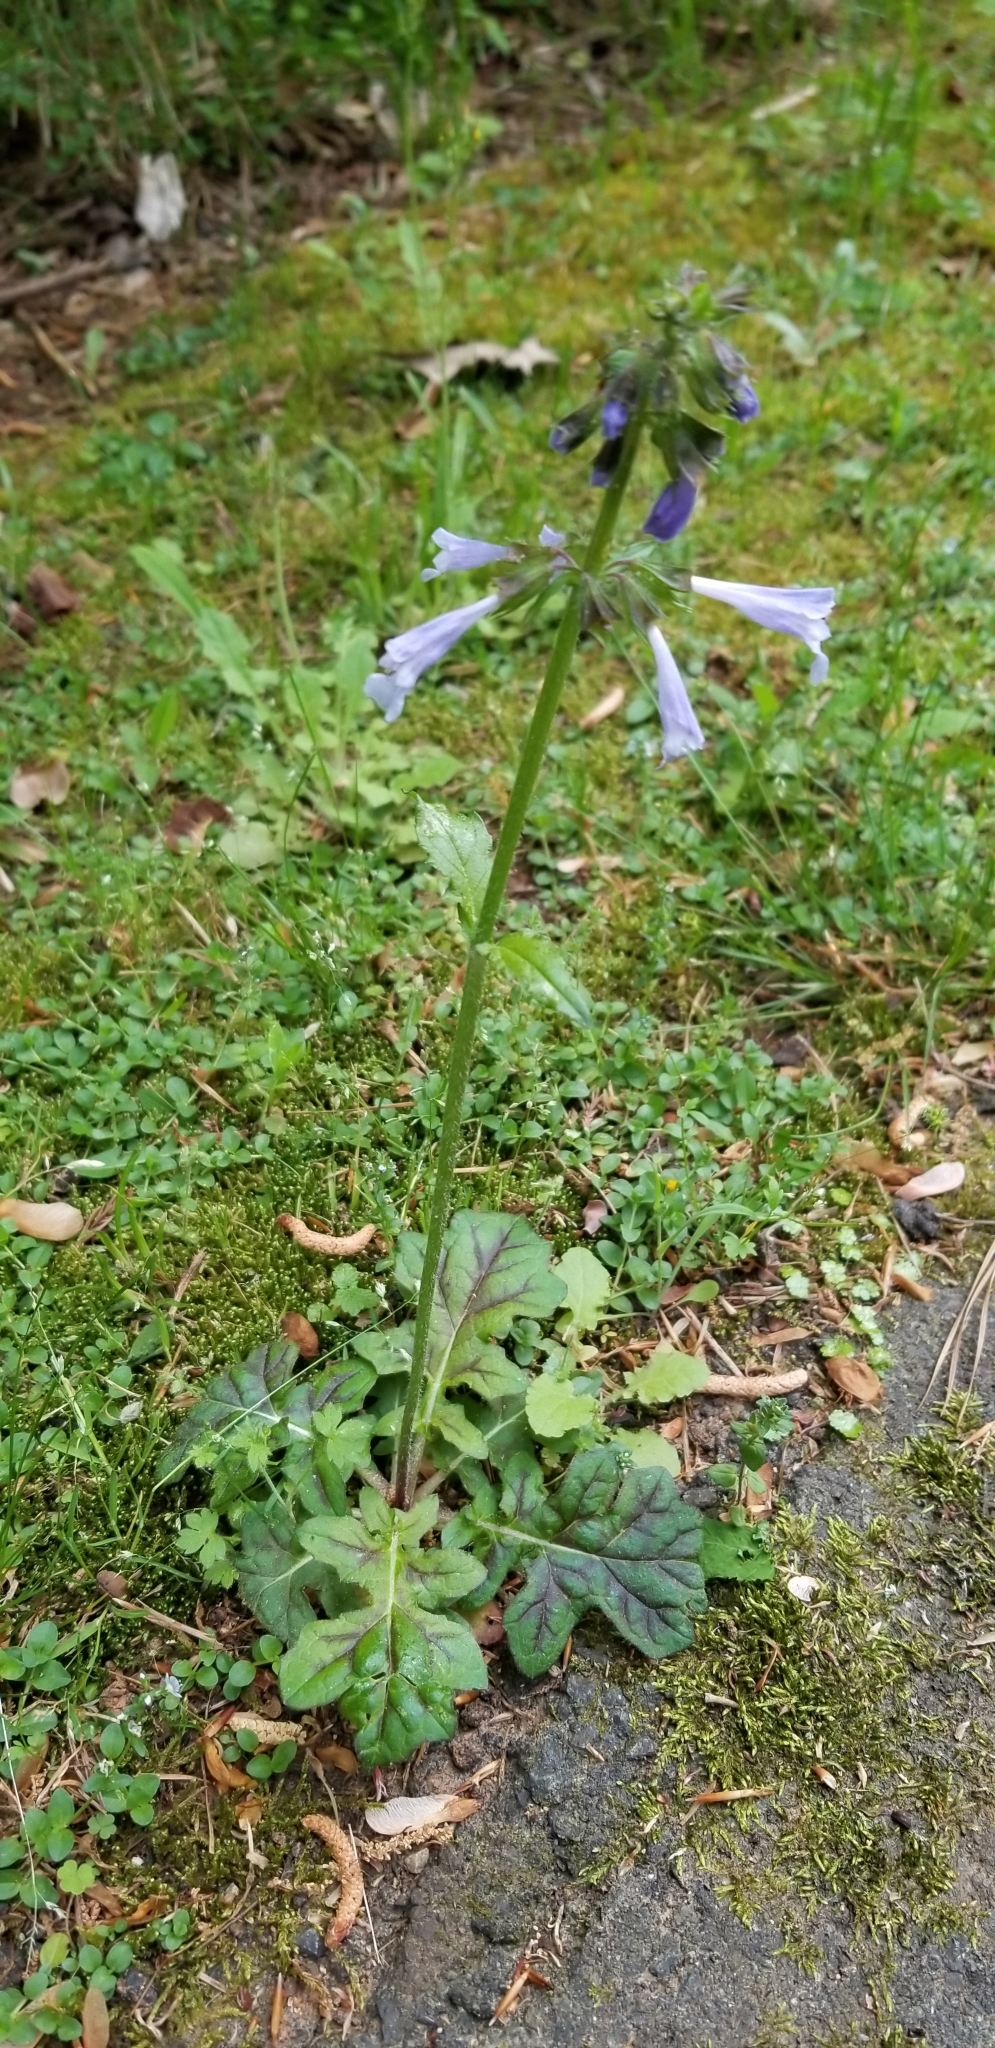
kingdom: Plantae
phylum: Tracheophyta
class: Magnoliopsida
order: Lamiales
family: Lamiaceae
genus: Salvia
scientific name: Salvia lyrata
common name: Cancerweed
